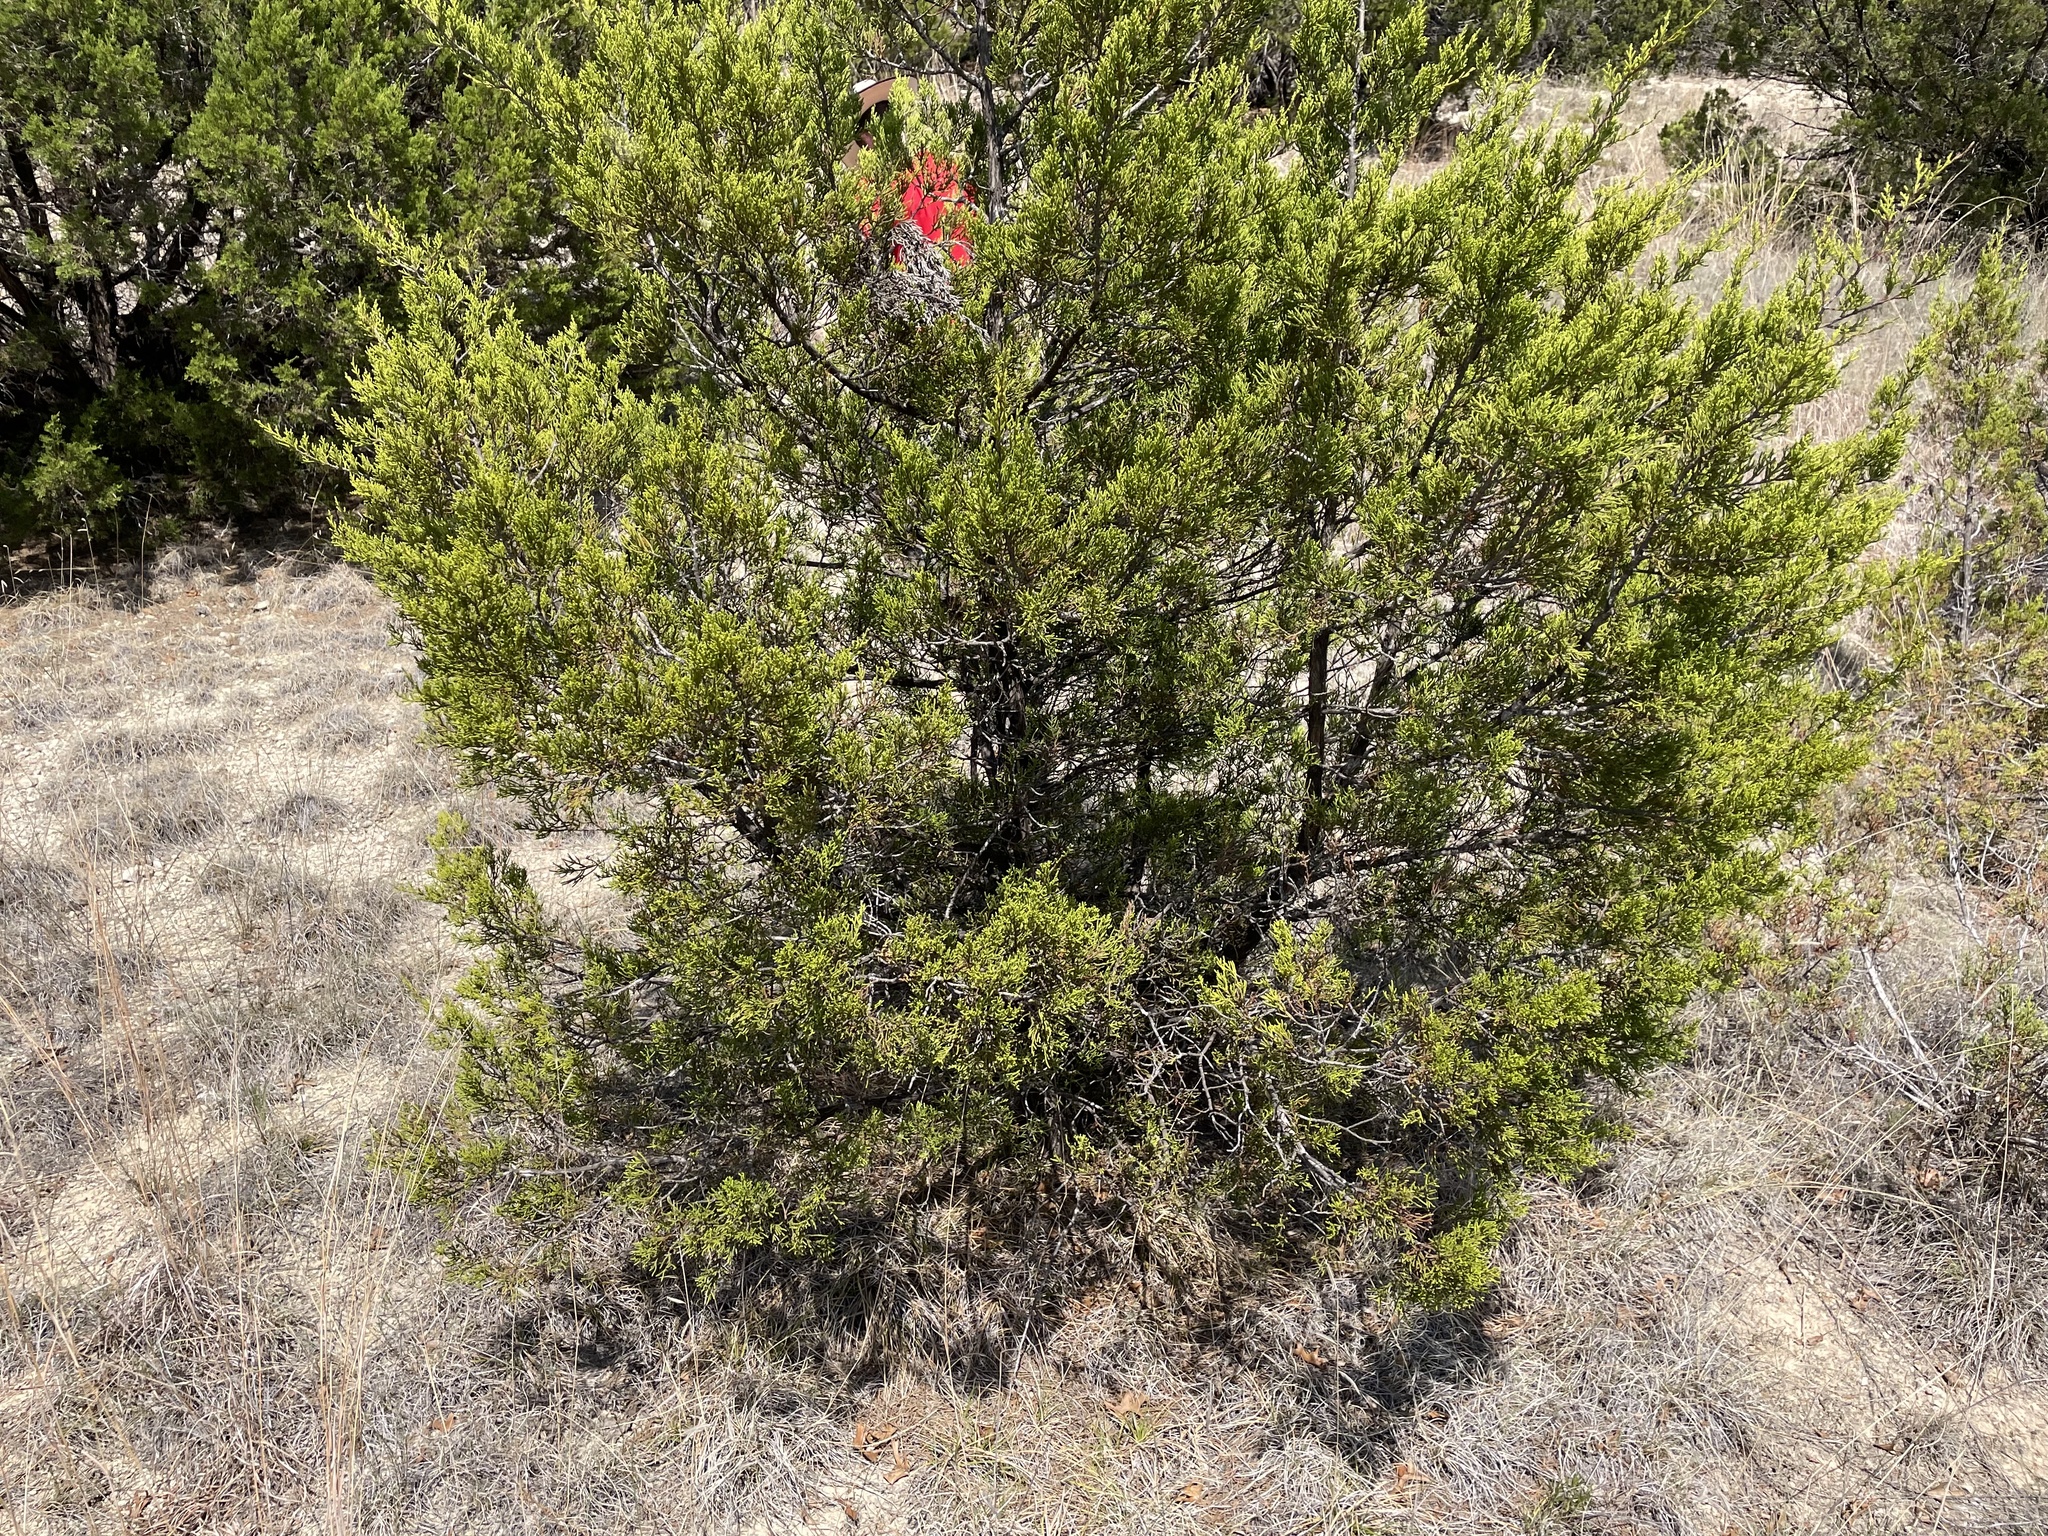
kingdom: Plantae
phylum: Tracheophyta
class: Pinopsida
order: Pinales
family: Cupressaceae
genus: Juniperus
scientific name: Juniperus ashei
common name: Mexican juniper
